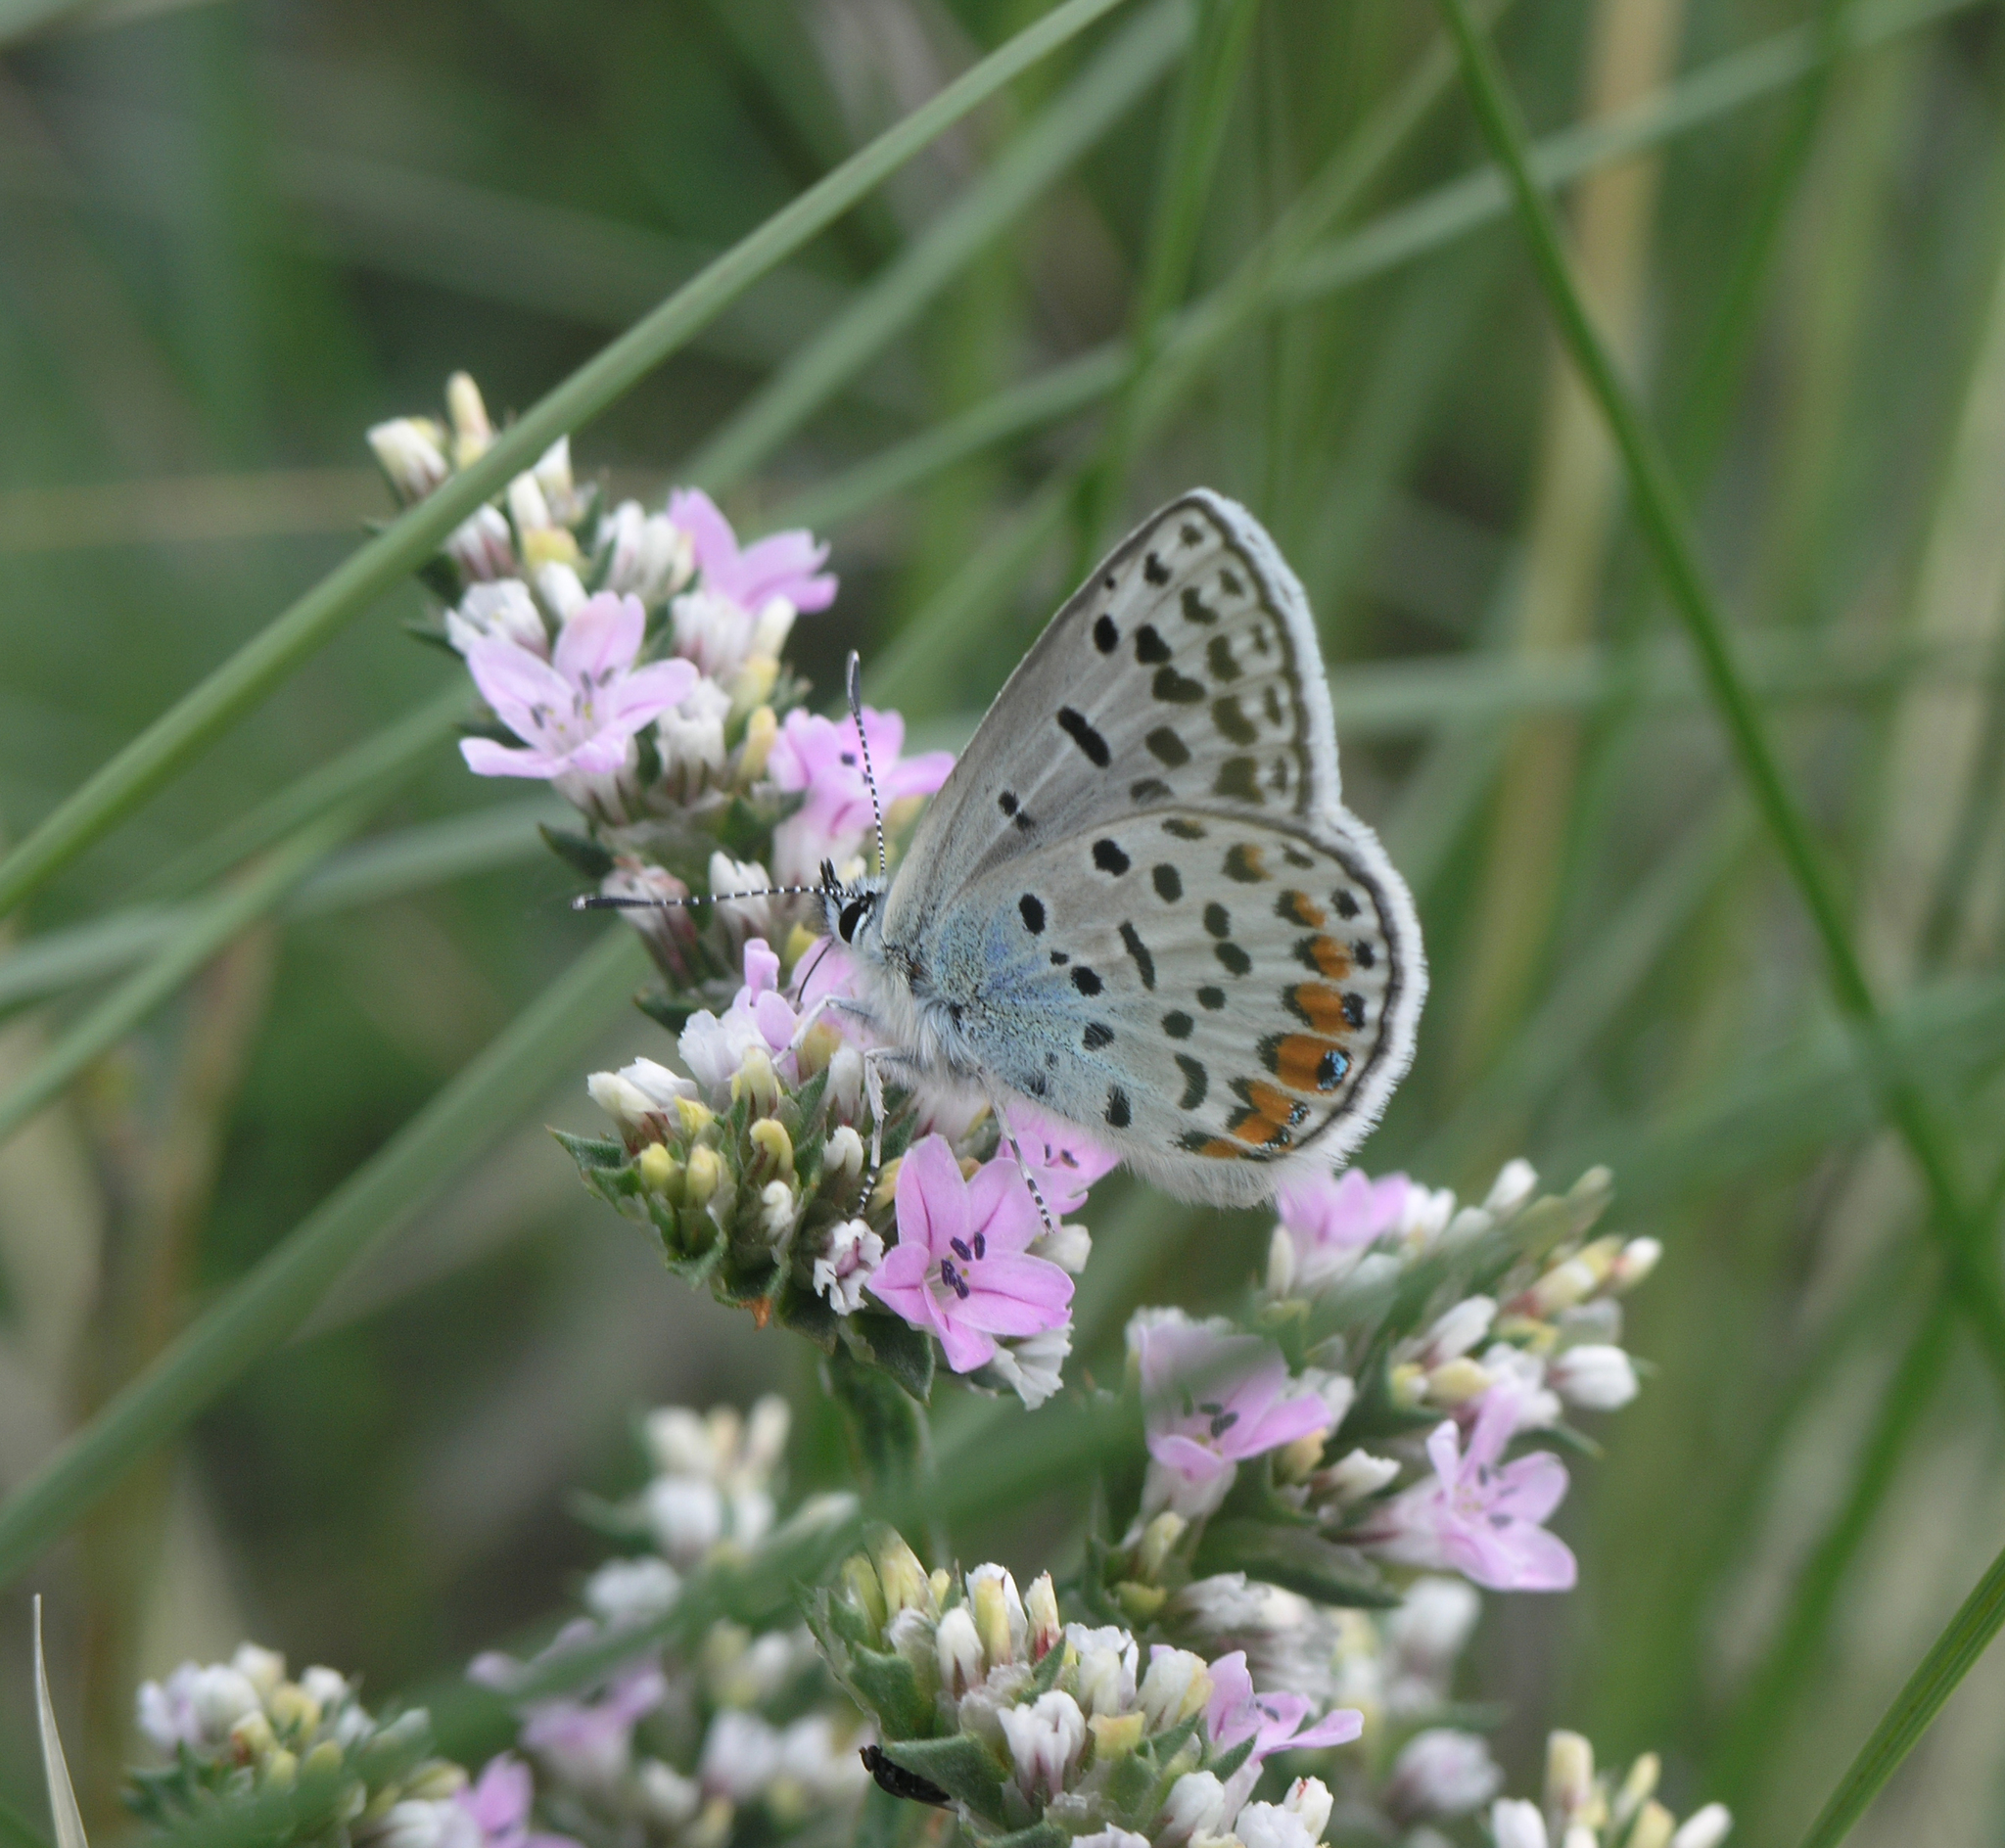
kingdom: Plantae
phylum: Tracheophyta
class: Magnoliopsida
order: Caryophyllales
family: Plumbaginaceae
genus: Goniolimon
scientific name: Goniolimon speciosum
